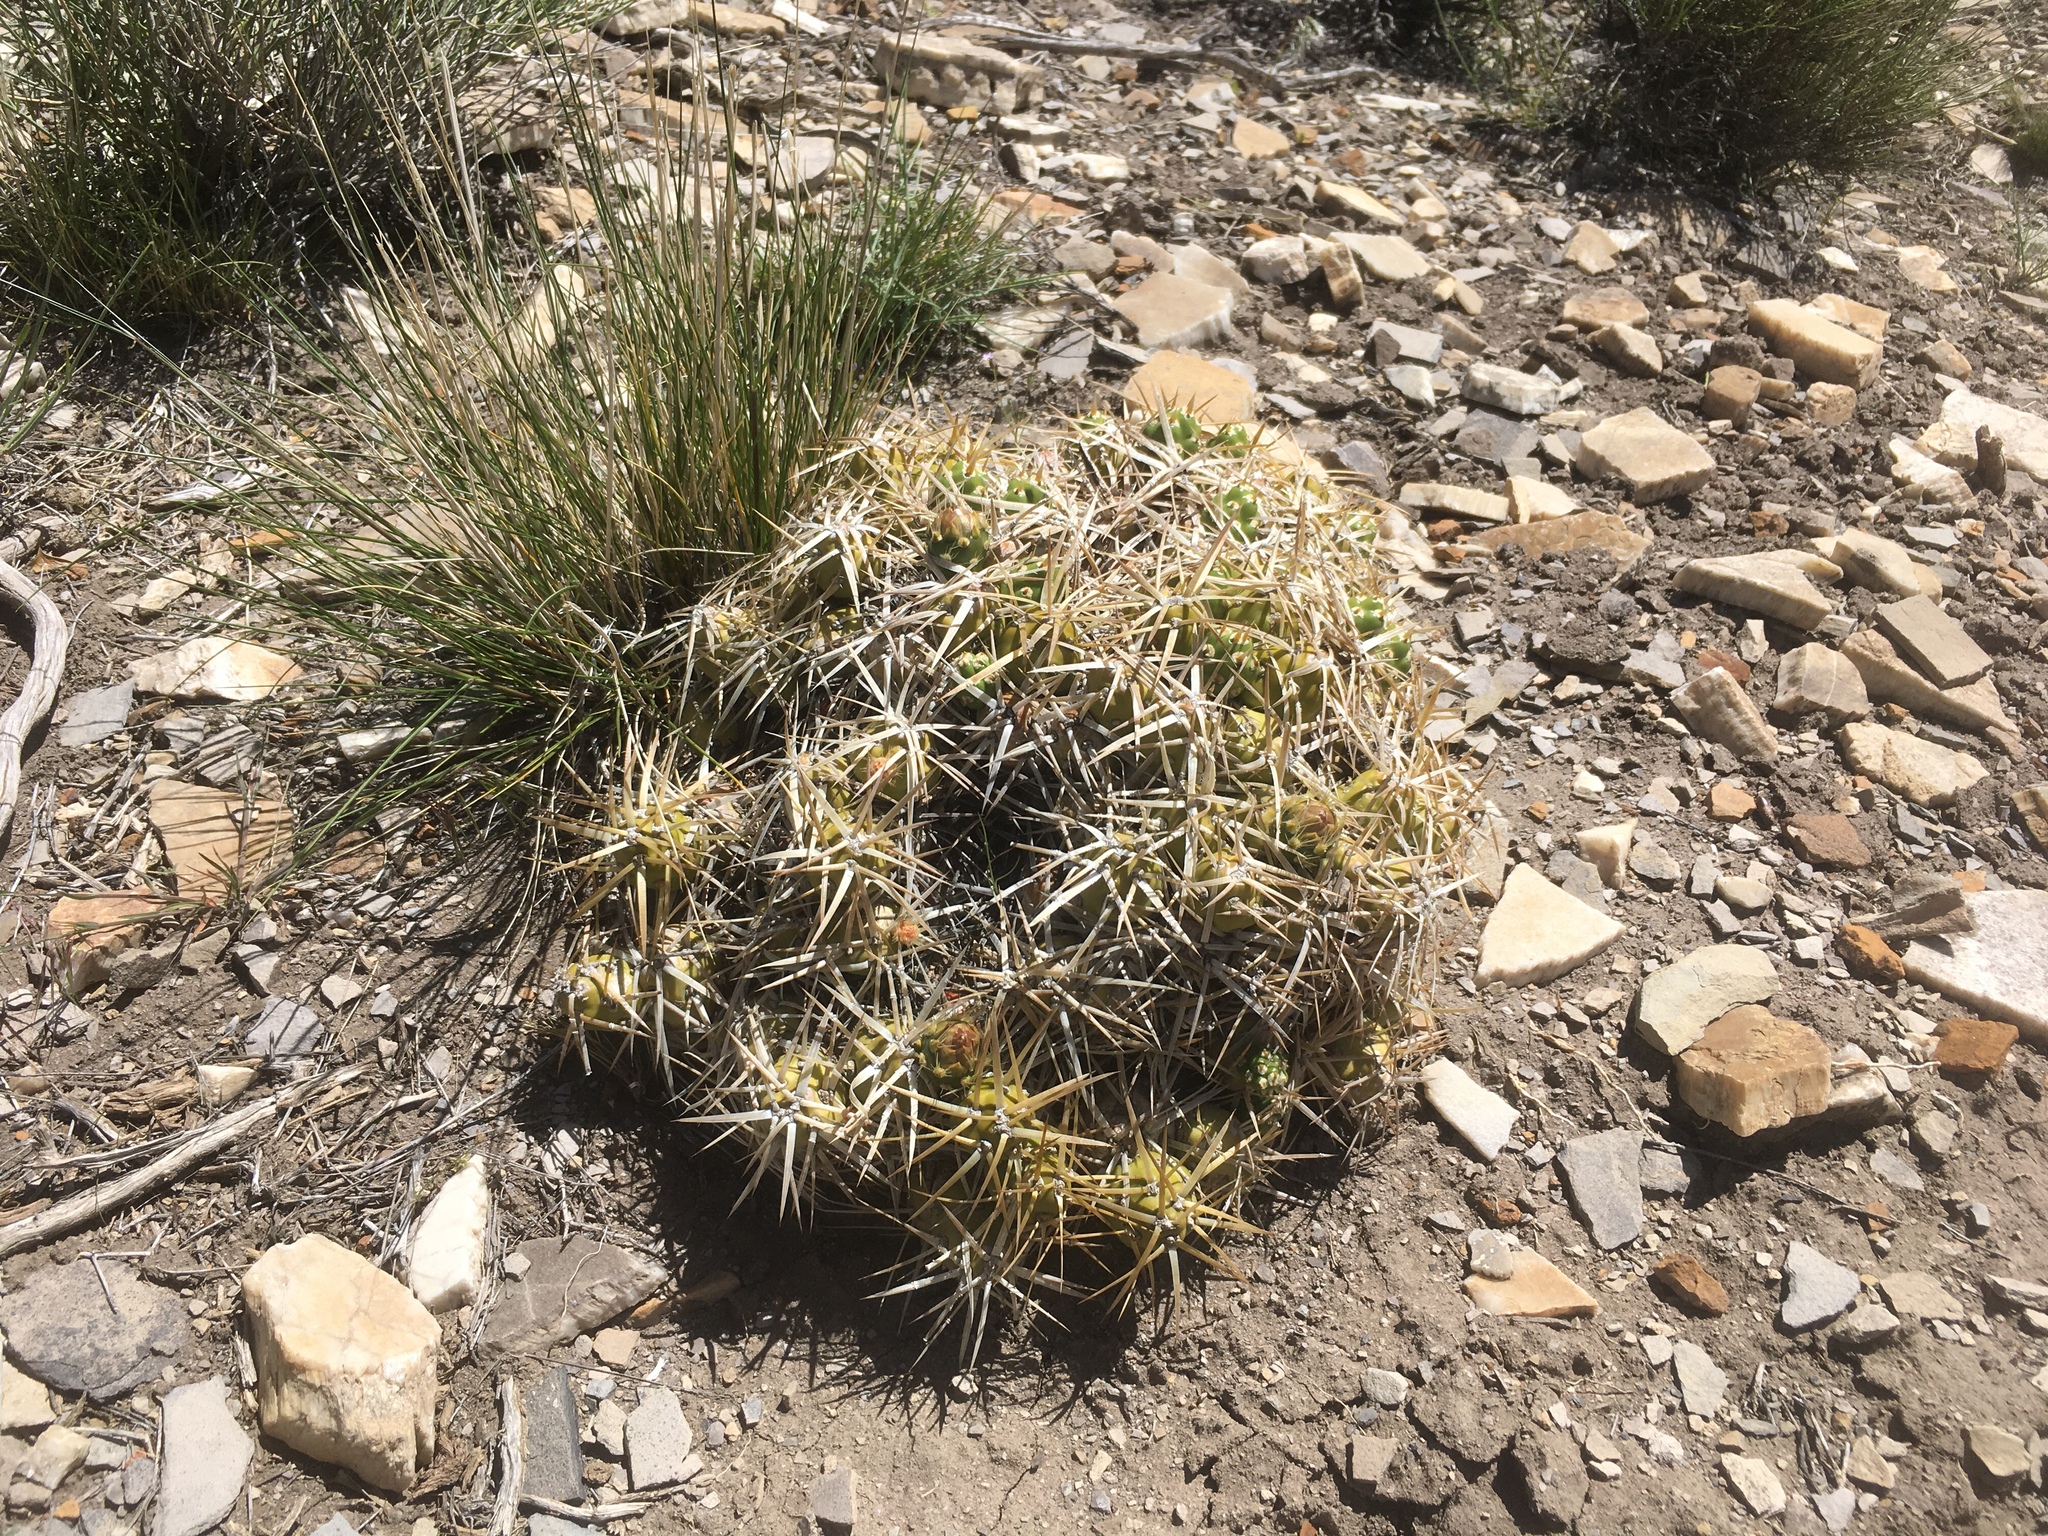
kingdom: Plantae
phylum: Tracheophyta
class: Magnoliopsida
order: Caryophyllales
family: Cactaceae
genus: Maihueniopsis
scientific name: Maihueniopsis platyacantha
